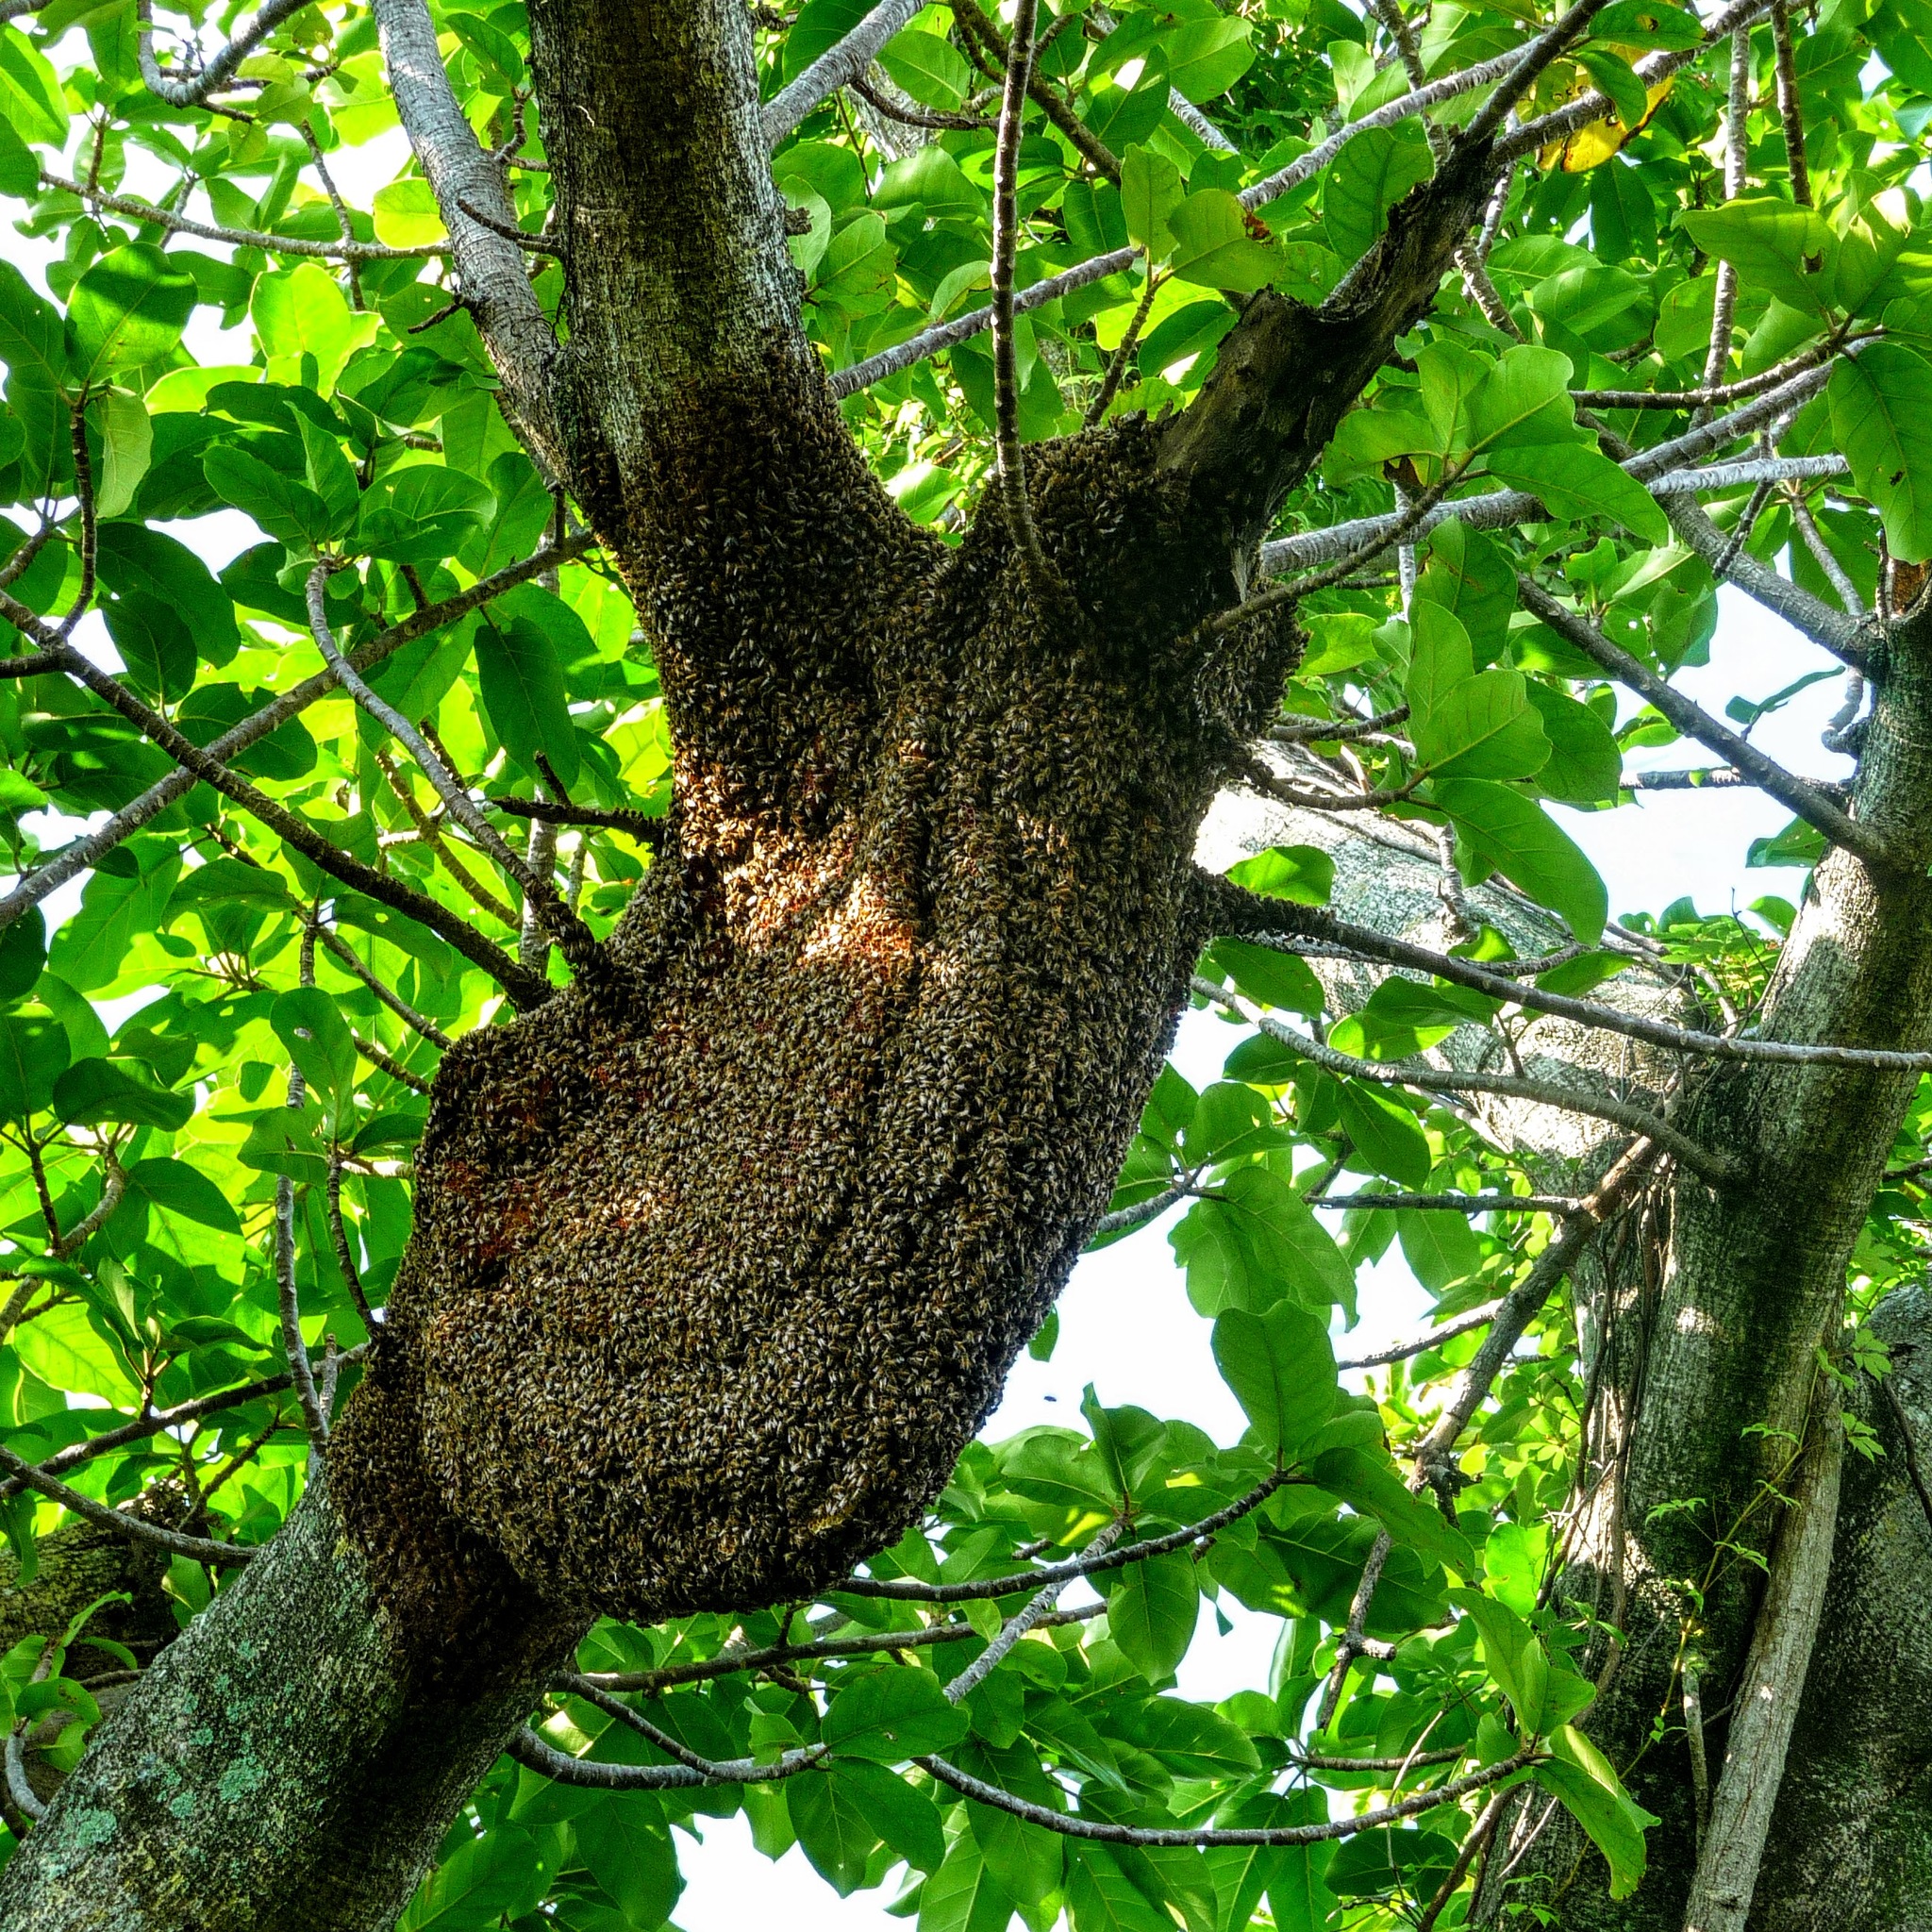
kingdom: Animalia
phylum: Arthropoda
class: Insecta
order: Hymenoptera
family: Apidae
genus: Apis
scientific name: Apis mellifera
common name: Honey bee
